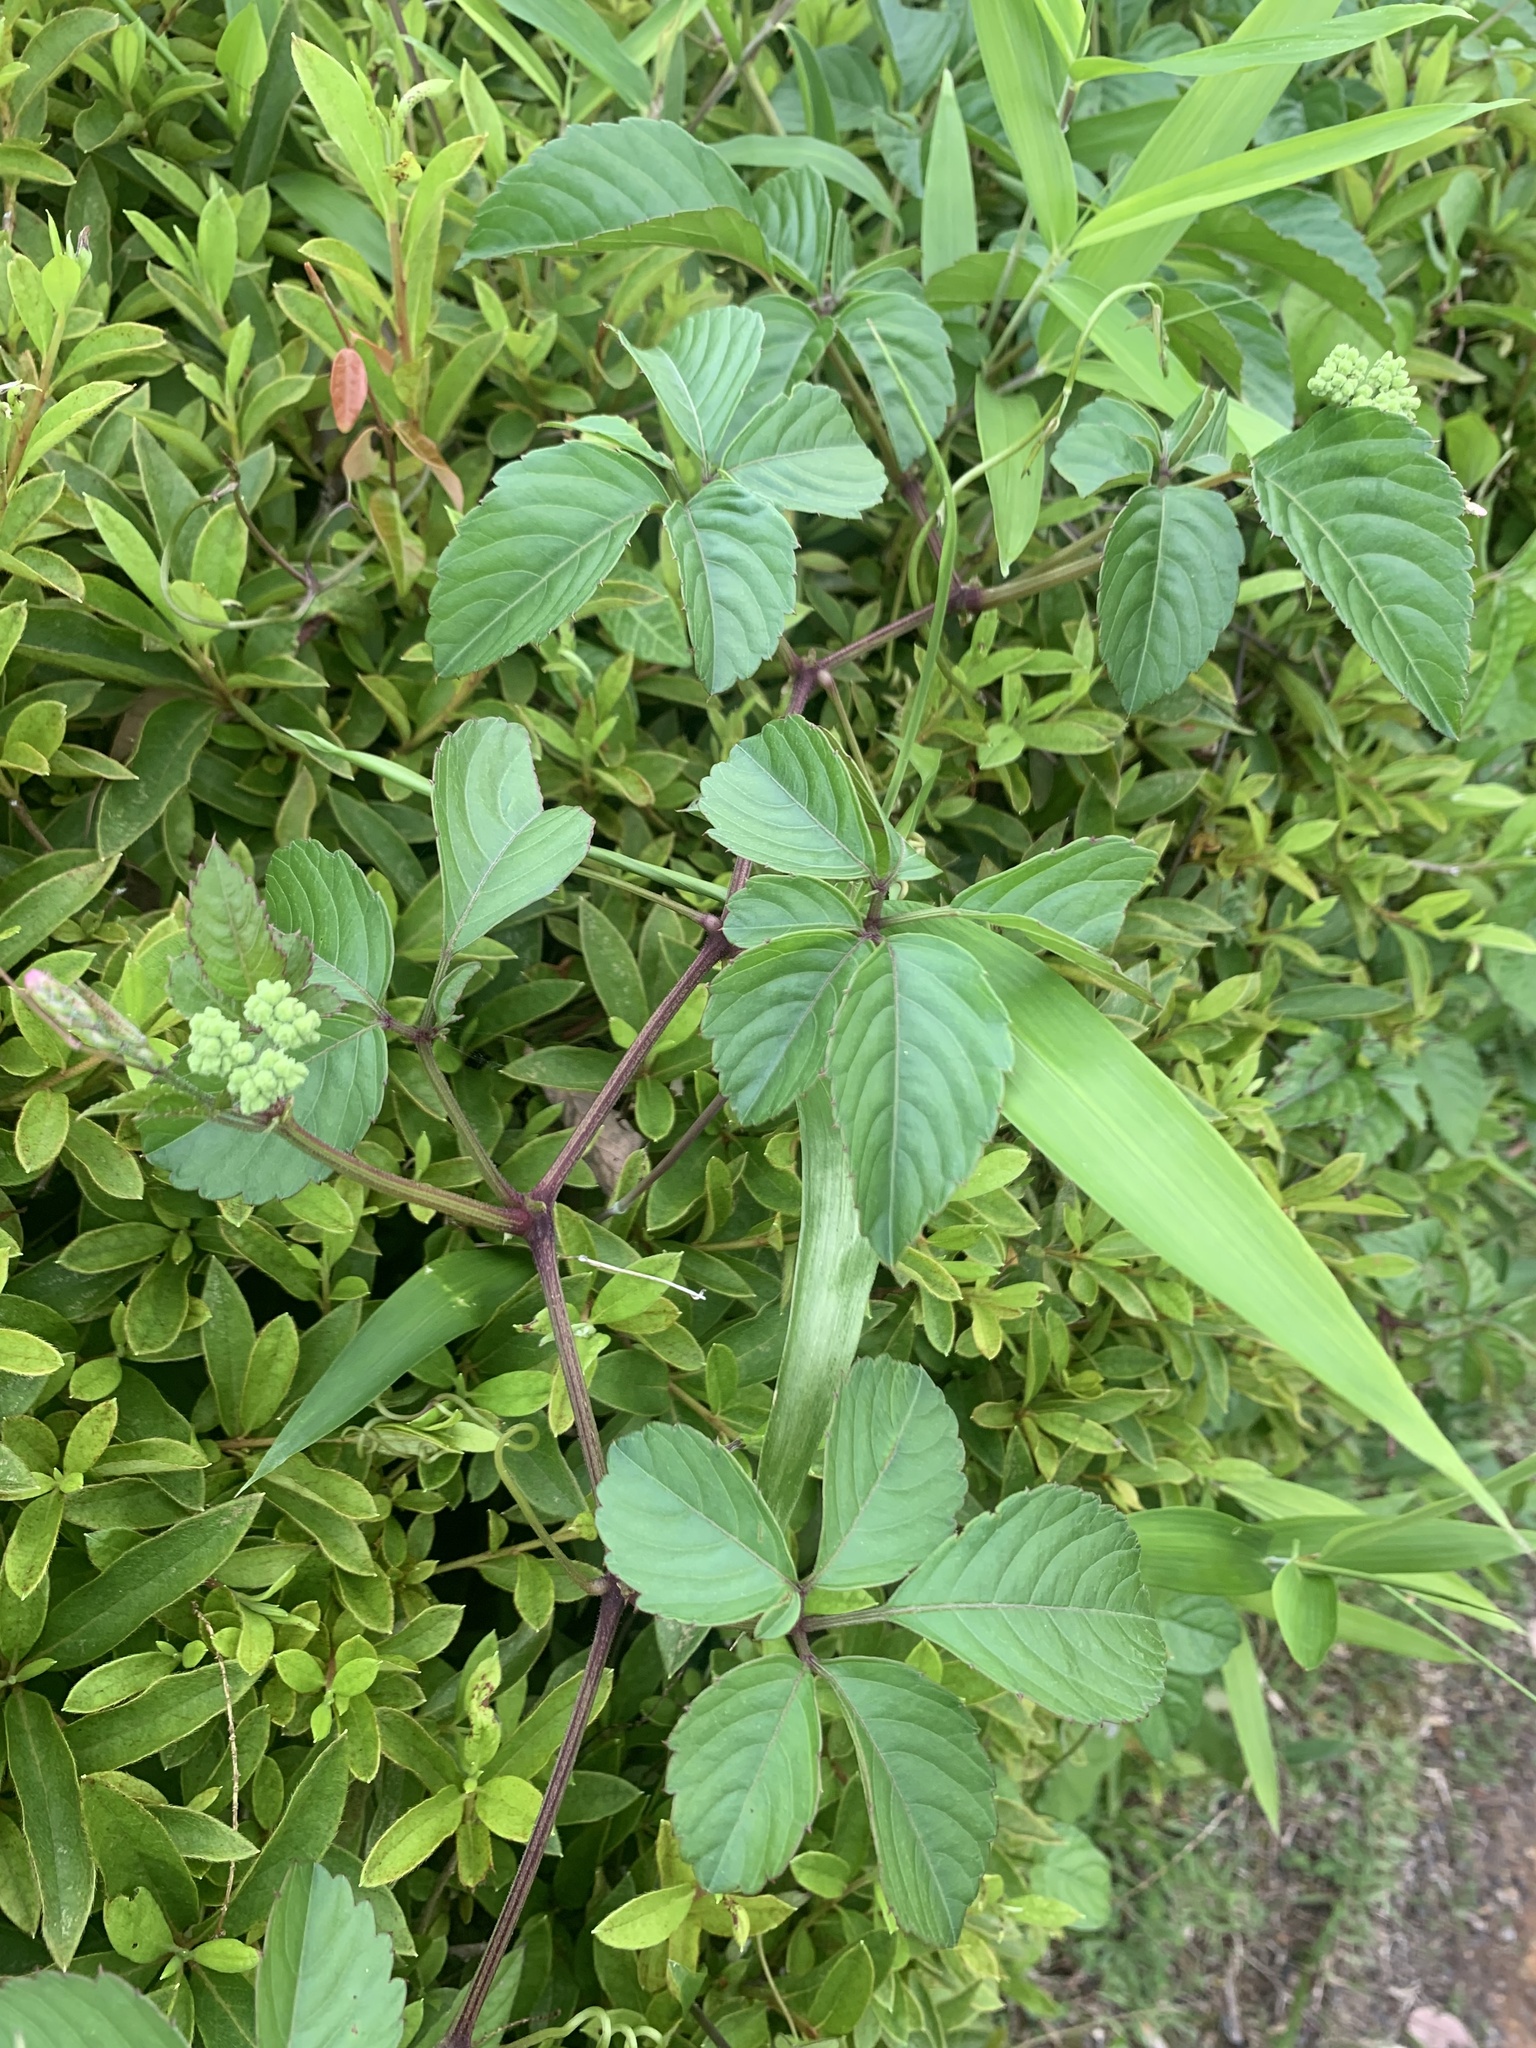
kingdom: Plantae
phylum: Tracheophyta
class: Magnoliopsida
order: Vitales
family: Vitaceae
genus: Causonis
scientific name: Causonis japonica
